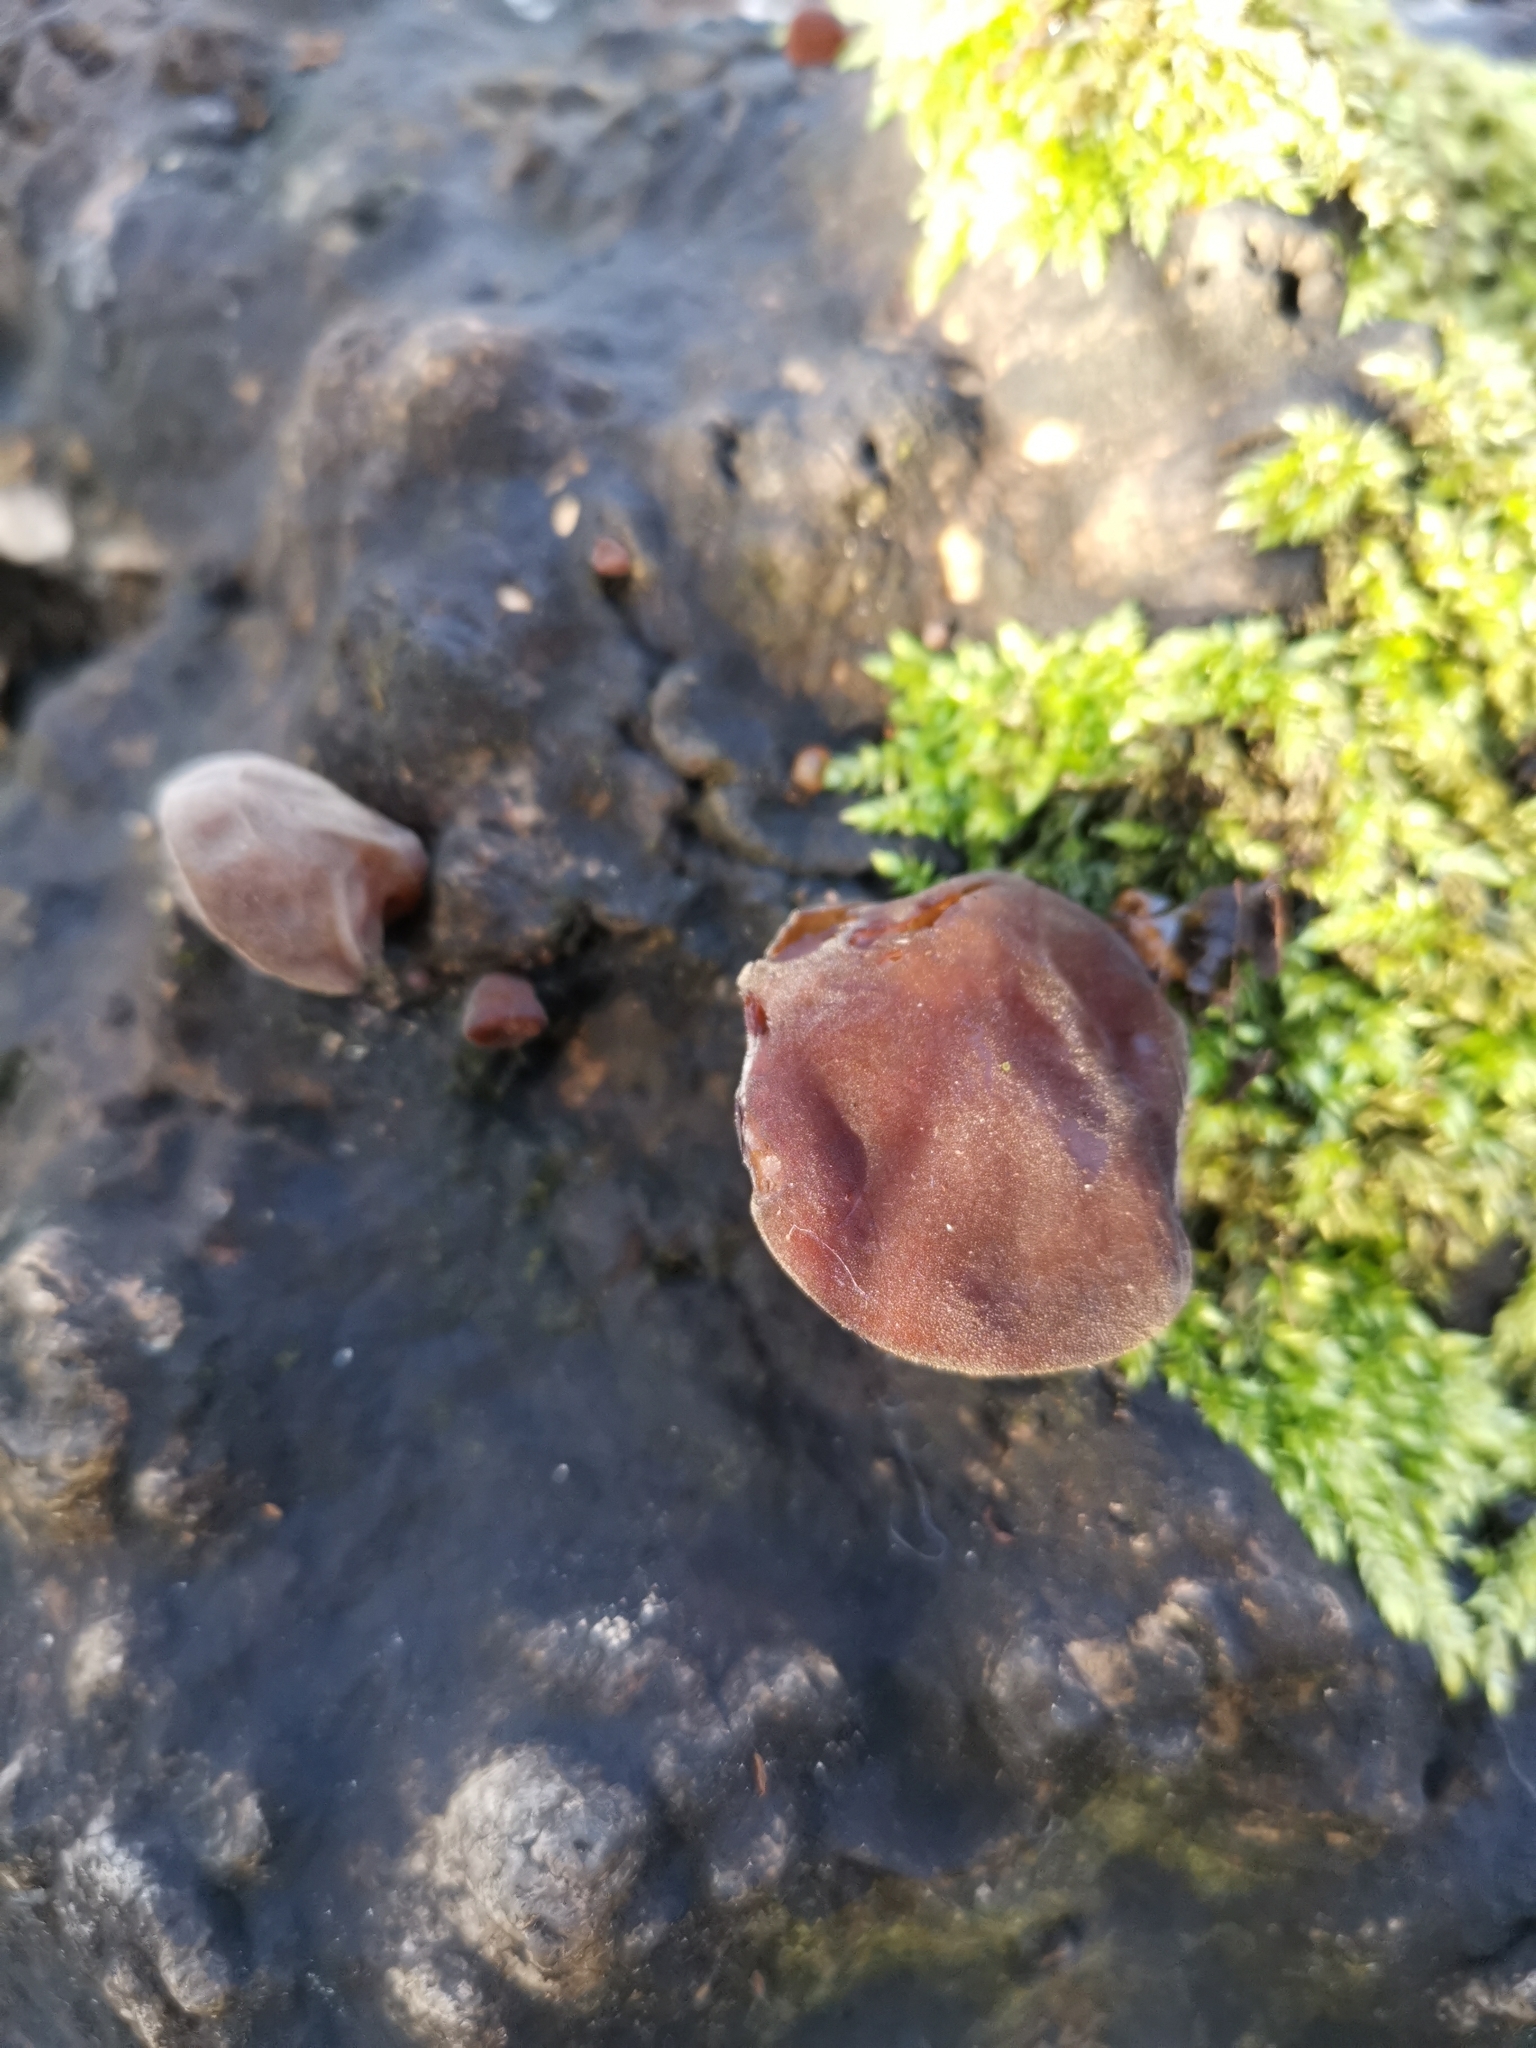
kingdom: Fungi
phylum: Basidiomycota
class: Agaricomycetes
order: Auriculariales
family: Auriculariaceae
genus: Auricularia
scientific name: Auricularia auricula-judae
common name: Jelly ear
